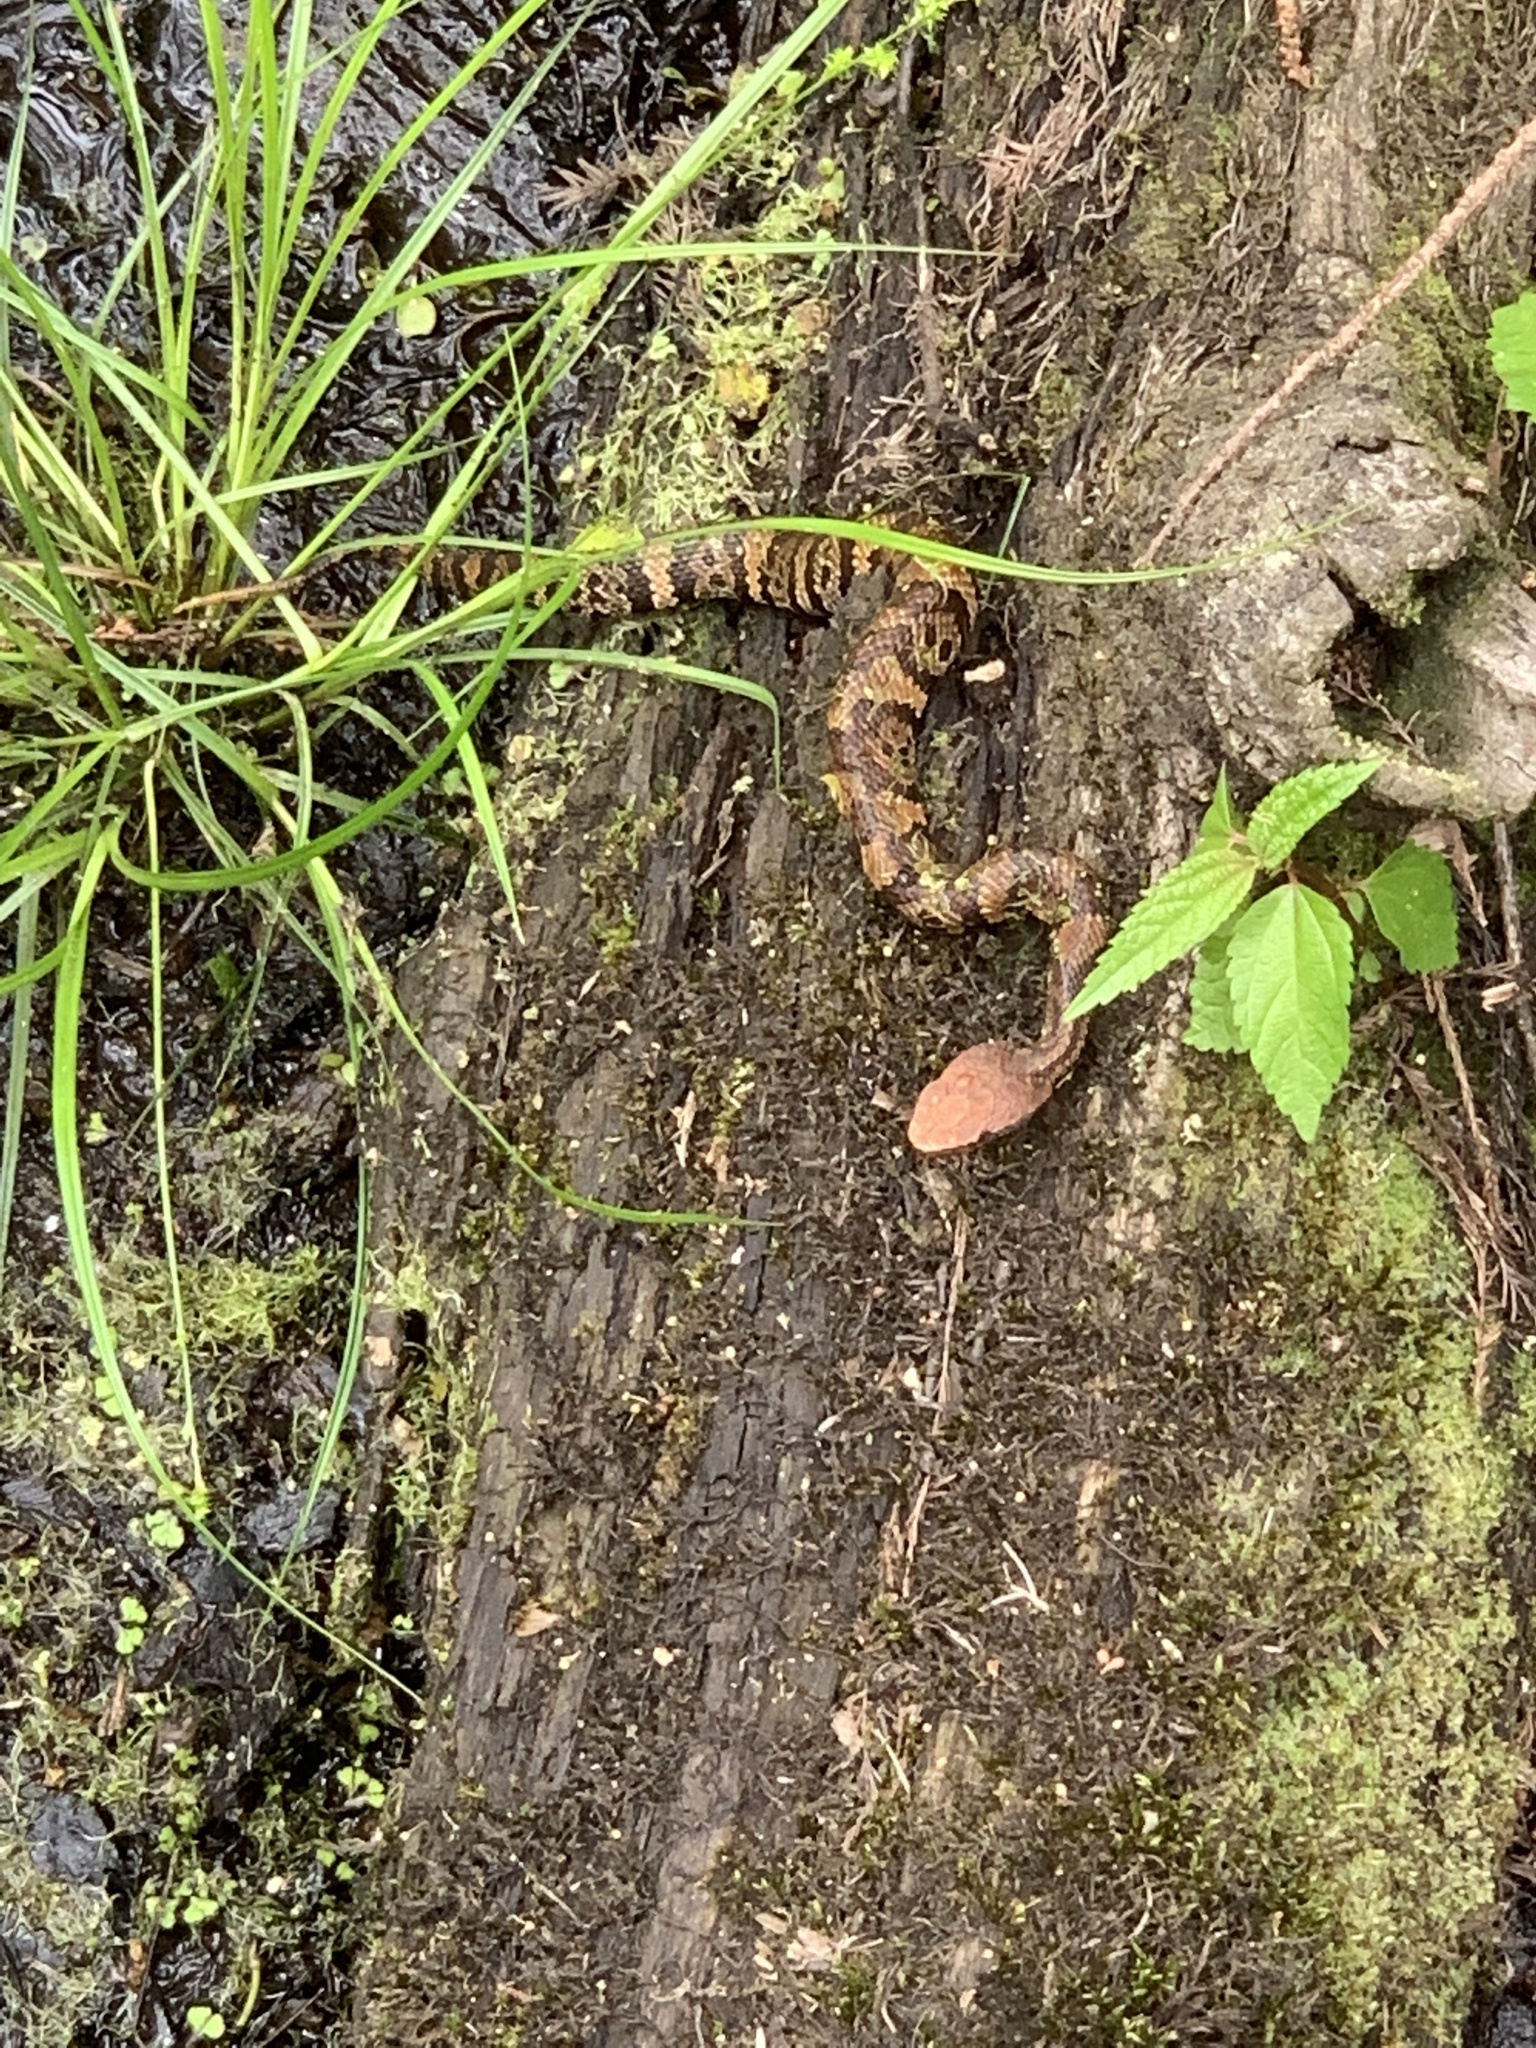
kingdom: Animalia
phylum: Chordata
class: Squamata
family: Viperidae
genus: Agkistrodon
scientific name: Agkistrodon piscivorus
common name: Cottonmouth
